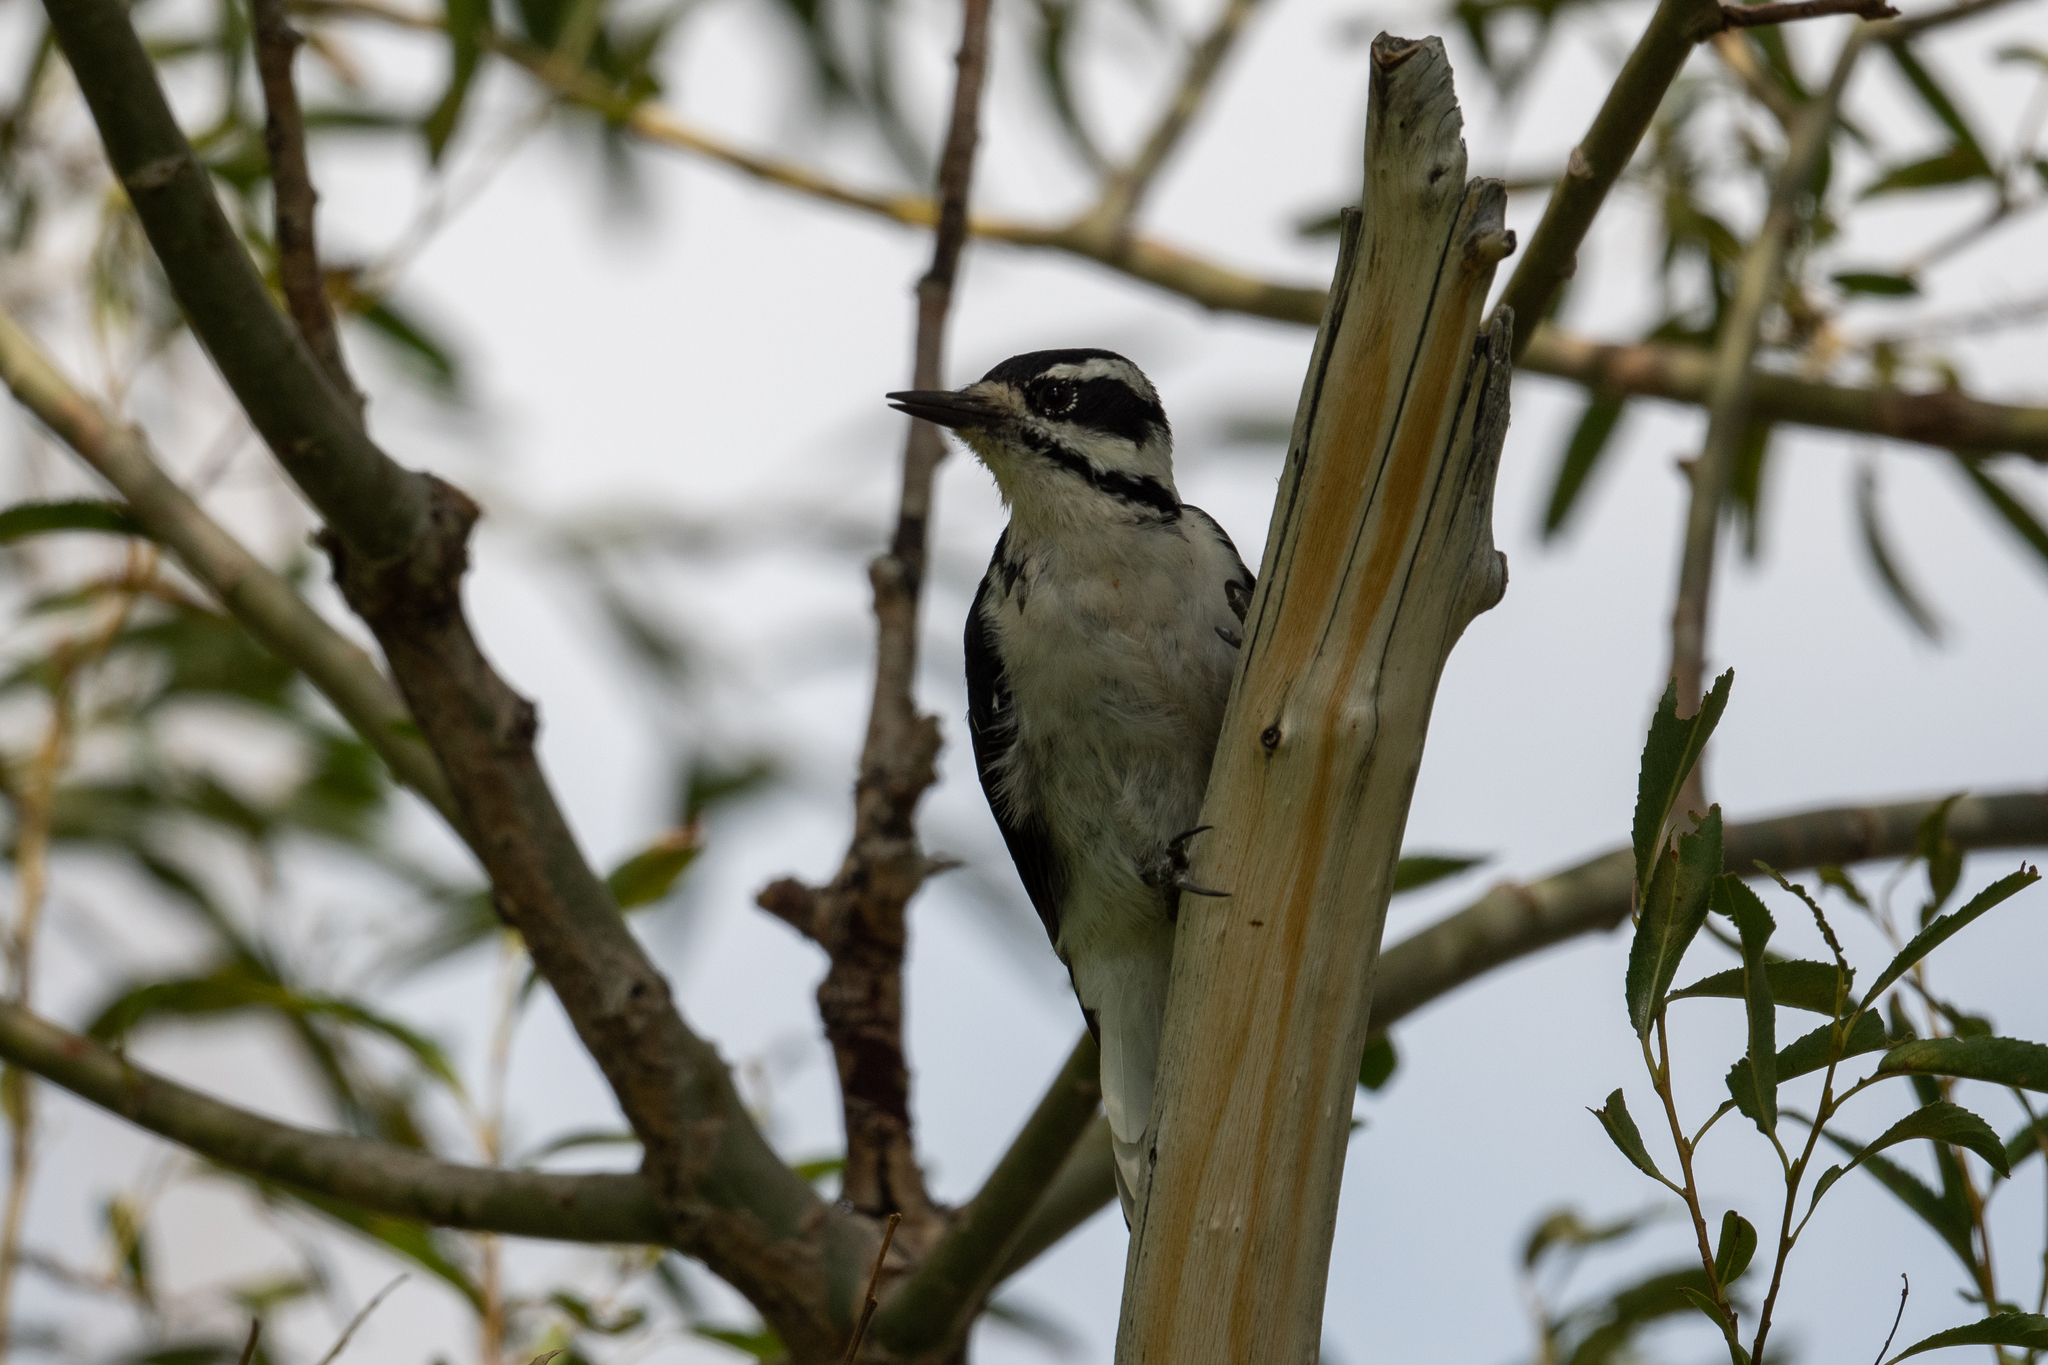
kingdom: Animalia
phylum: Chordata
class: Aves
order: Piciformes
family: Picidae
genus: Leuconotopicus
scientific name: Leuconotopicus villosus
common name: Hairy woodpecker
